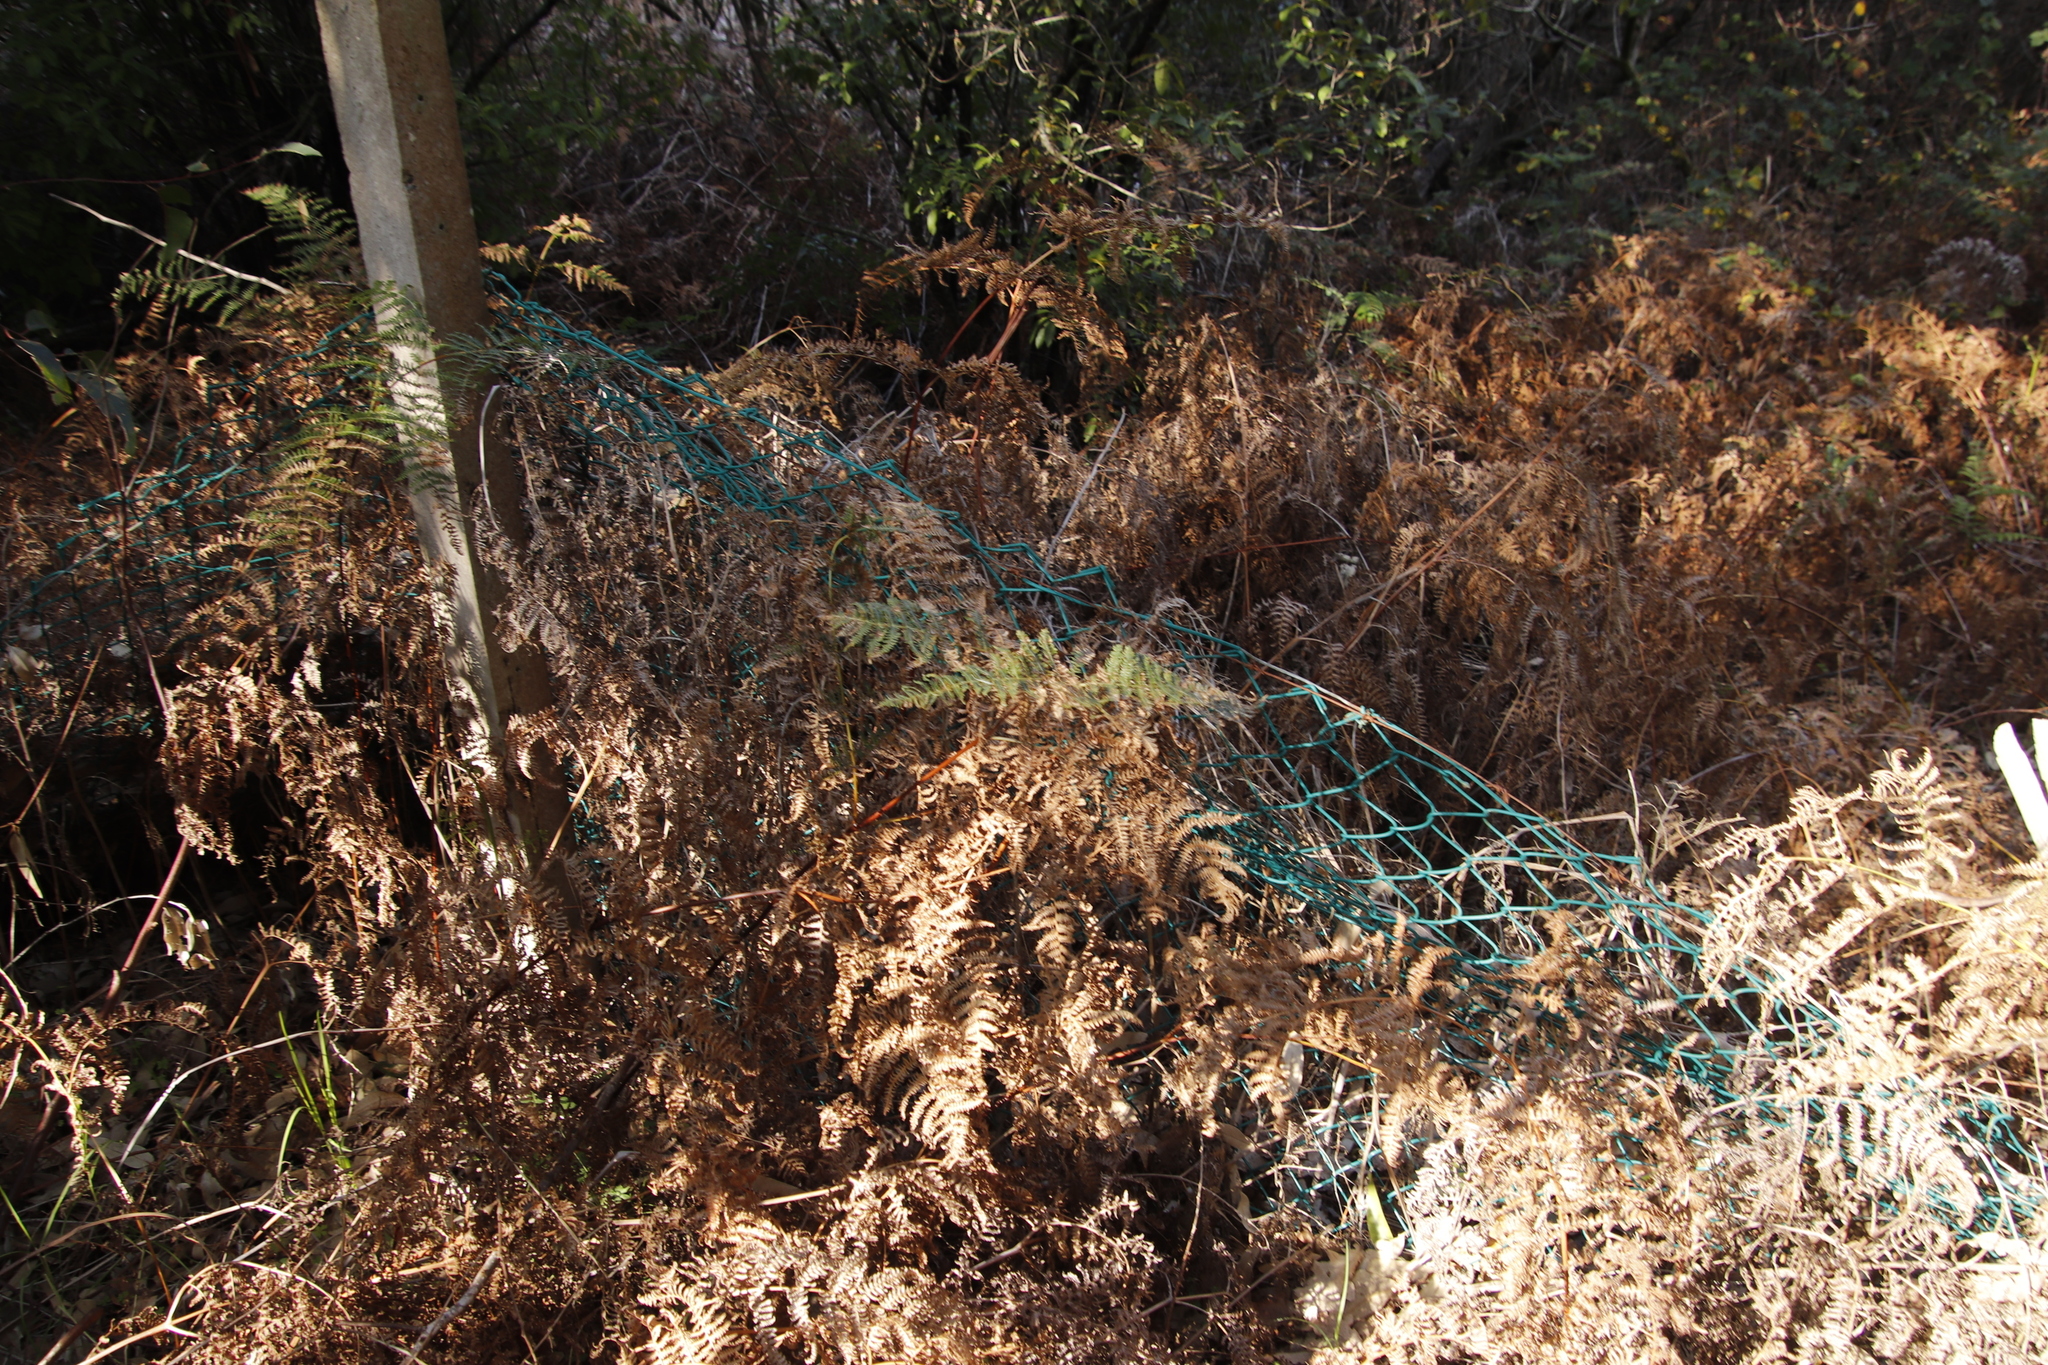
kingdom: Plantae
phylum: Tracheophyta
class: Polypodiopsida
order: Polypodiales
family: Dennstaedtiaceae
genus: Pteridium
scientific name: Pteridium aquilinum
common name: Bracken
